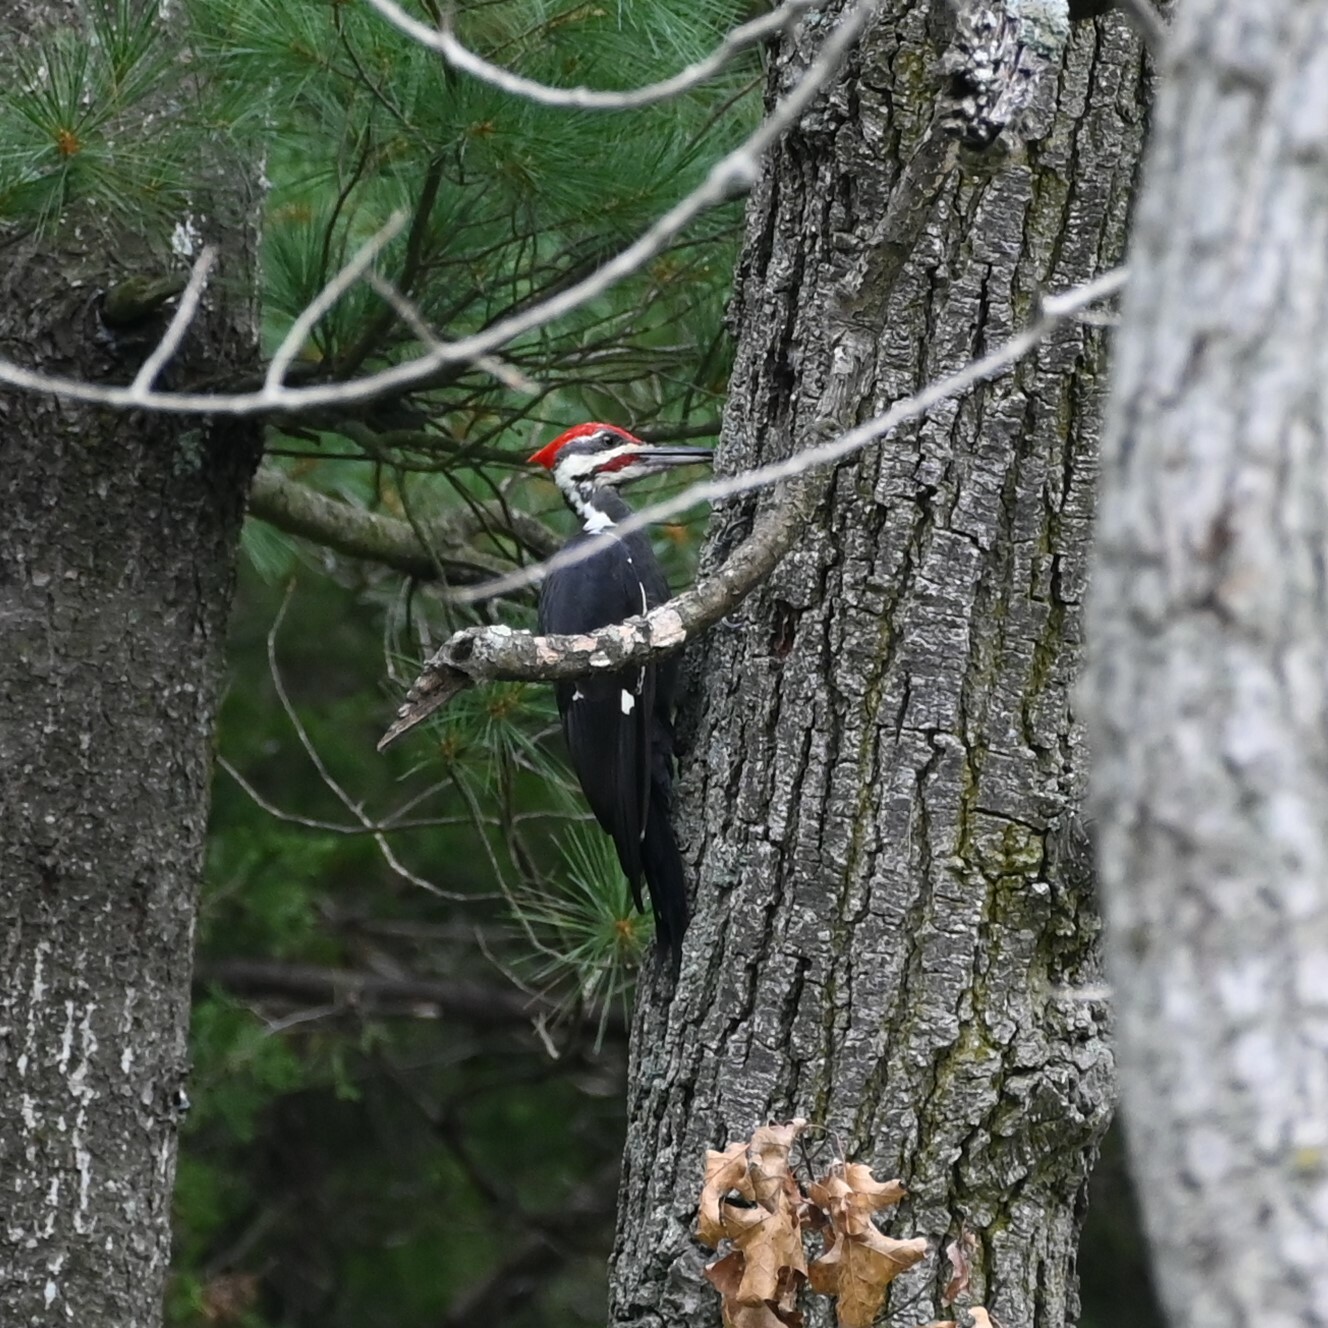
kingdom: Animalia
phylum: Chordata
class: Aves
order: Piciformes
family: Picidae
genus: Dryocopus
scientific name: Dryocopus pileatus
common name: Pileated woodpecker
